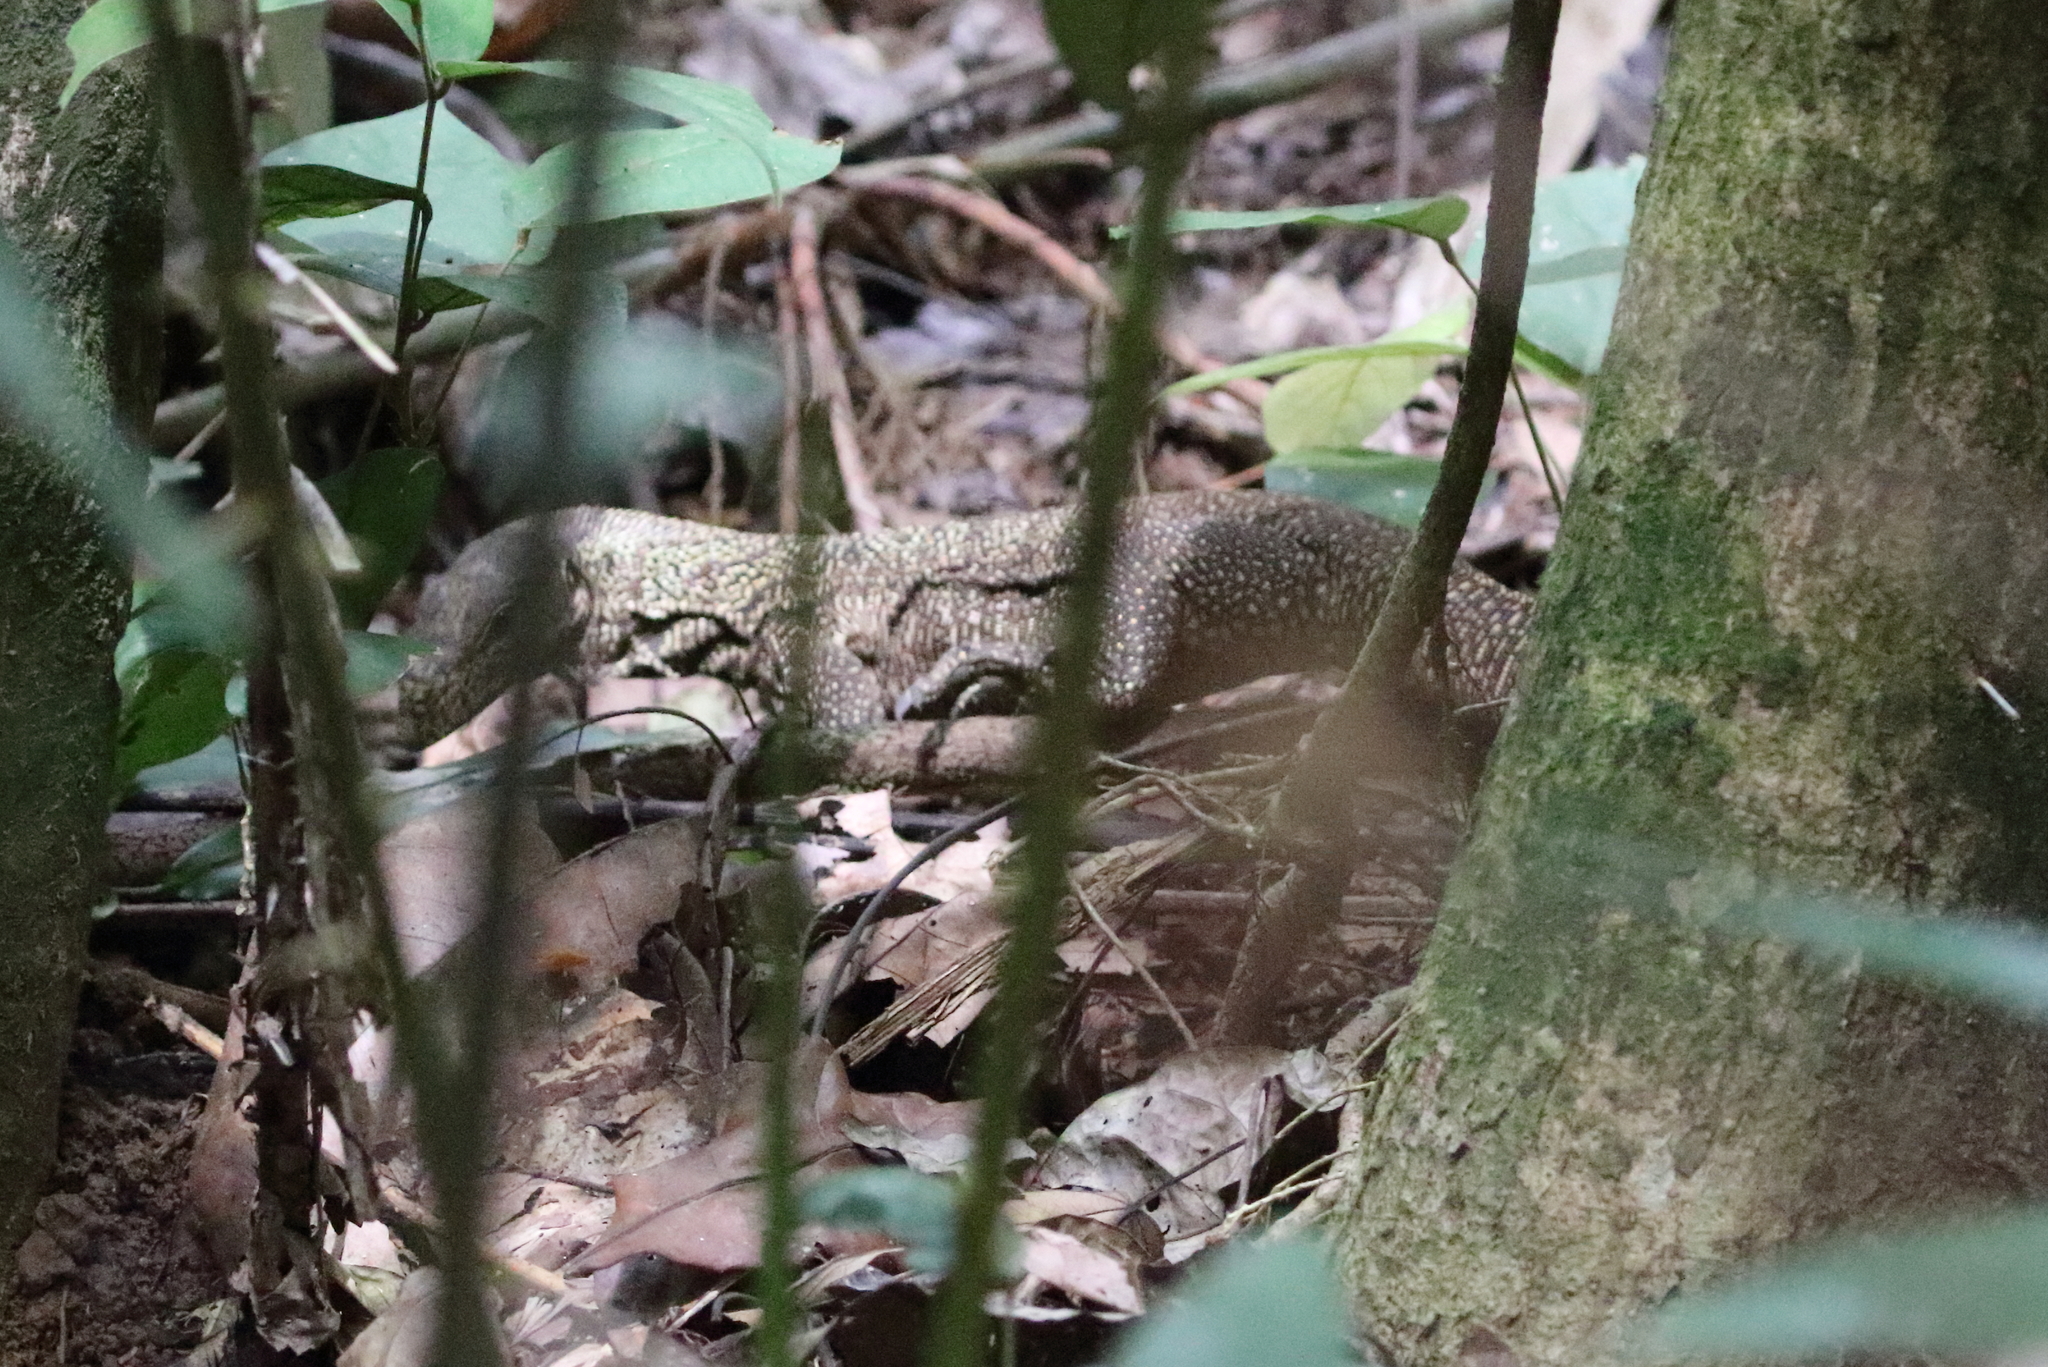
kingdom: Animalia
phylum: Chordata
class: Squamata
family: Varanidae
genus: Varanus
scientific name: Varanus nebulosus
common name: Clouded monitor
